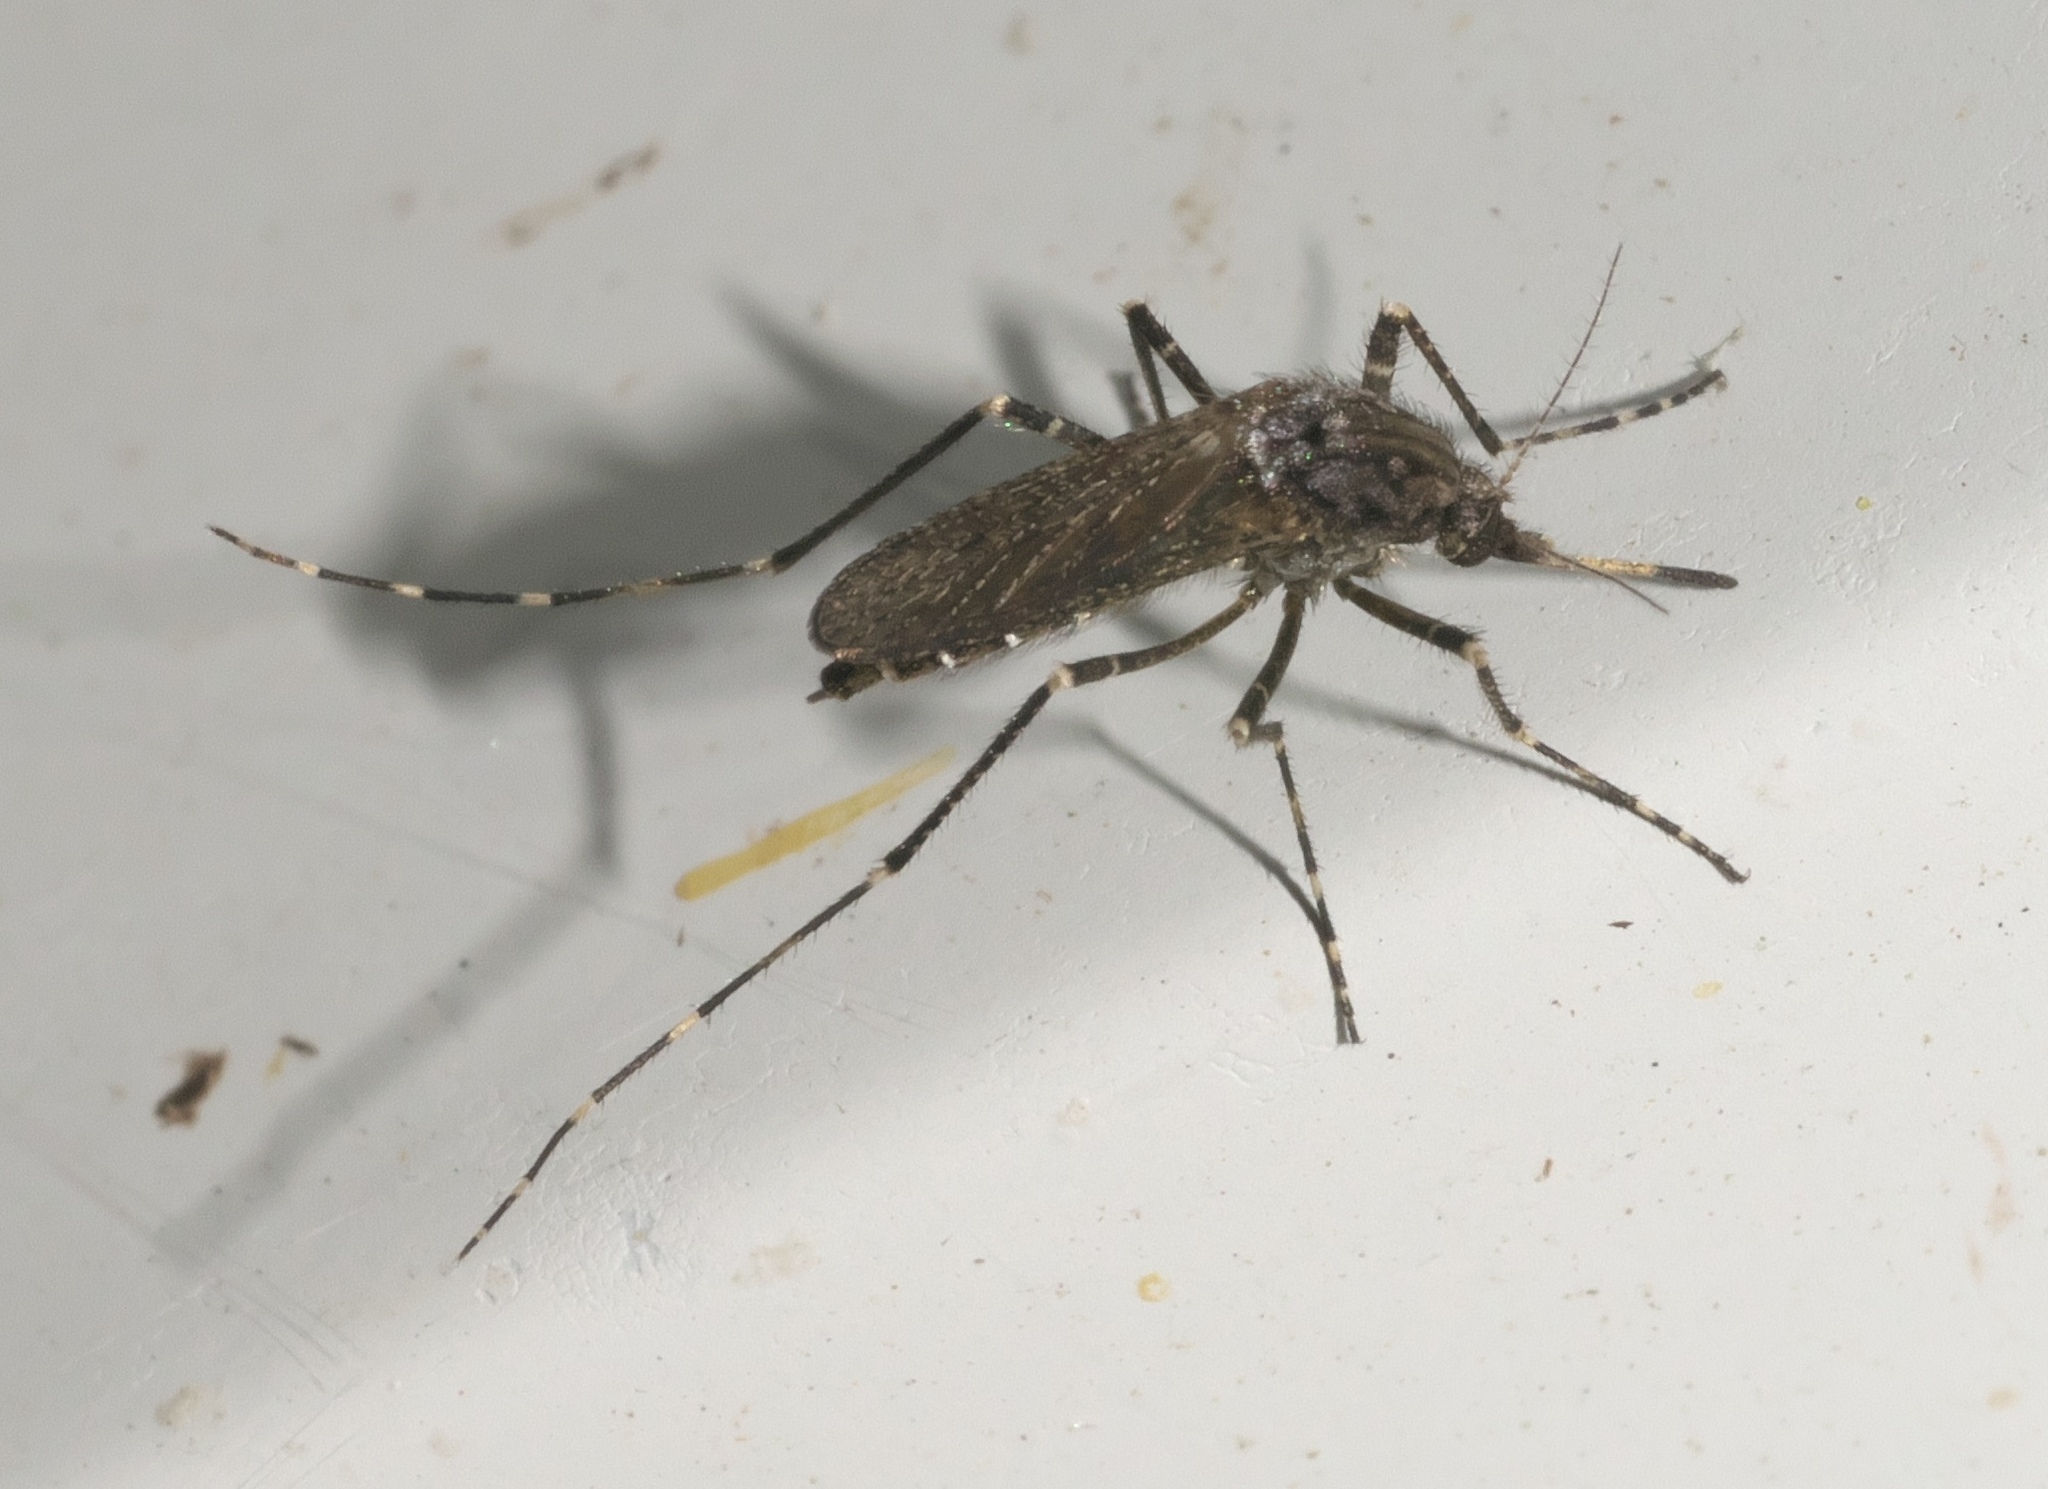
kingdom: Animalia
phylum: Arthropoda
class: Insecta
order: Diptera
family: Culicidae
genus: Psorophora
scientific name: Psorophora columbiae
